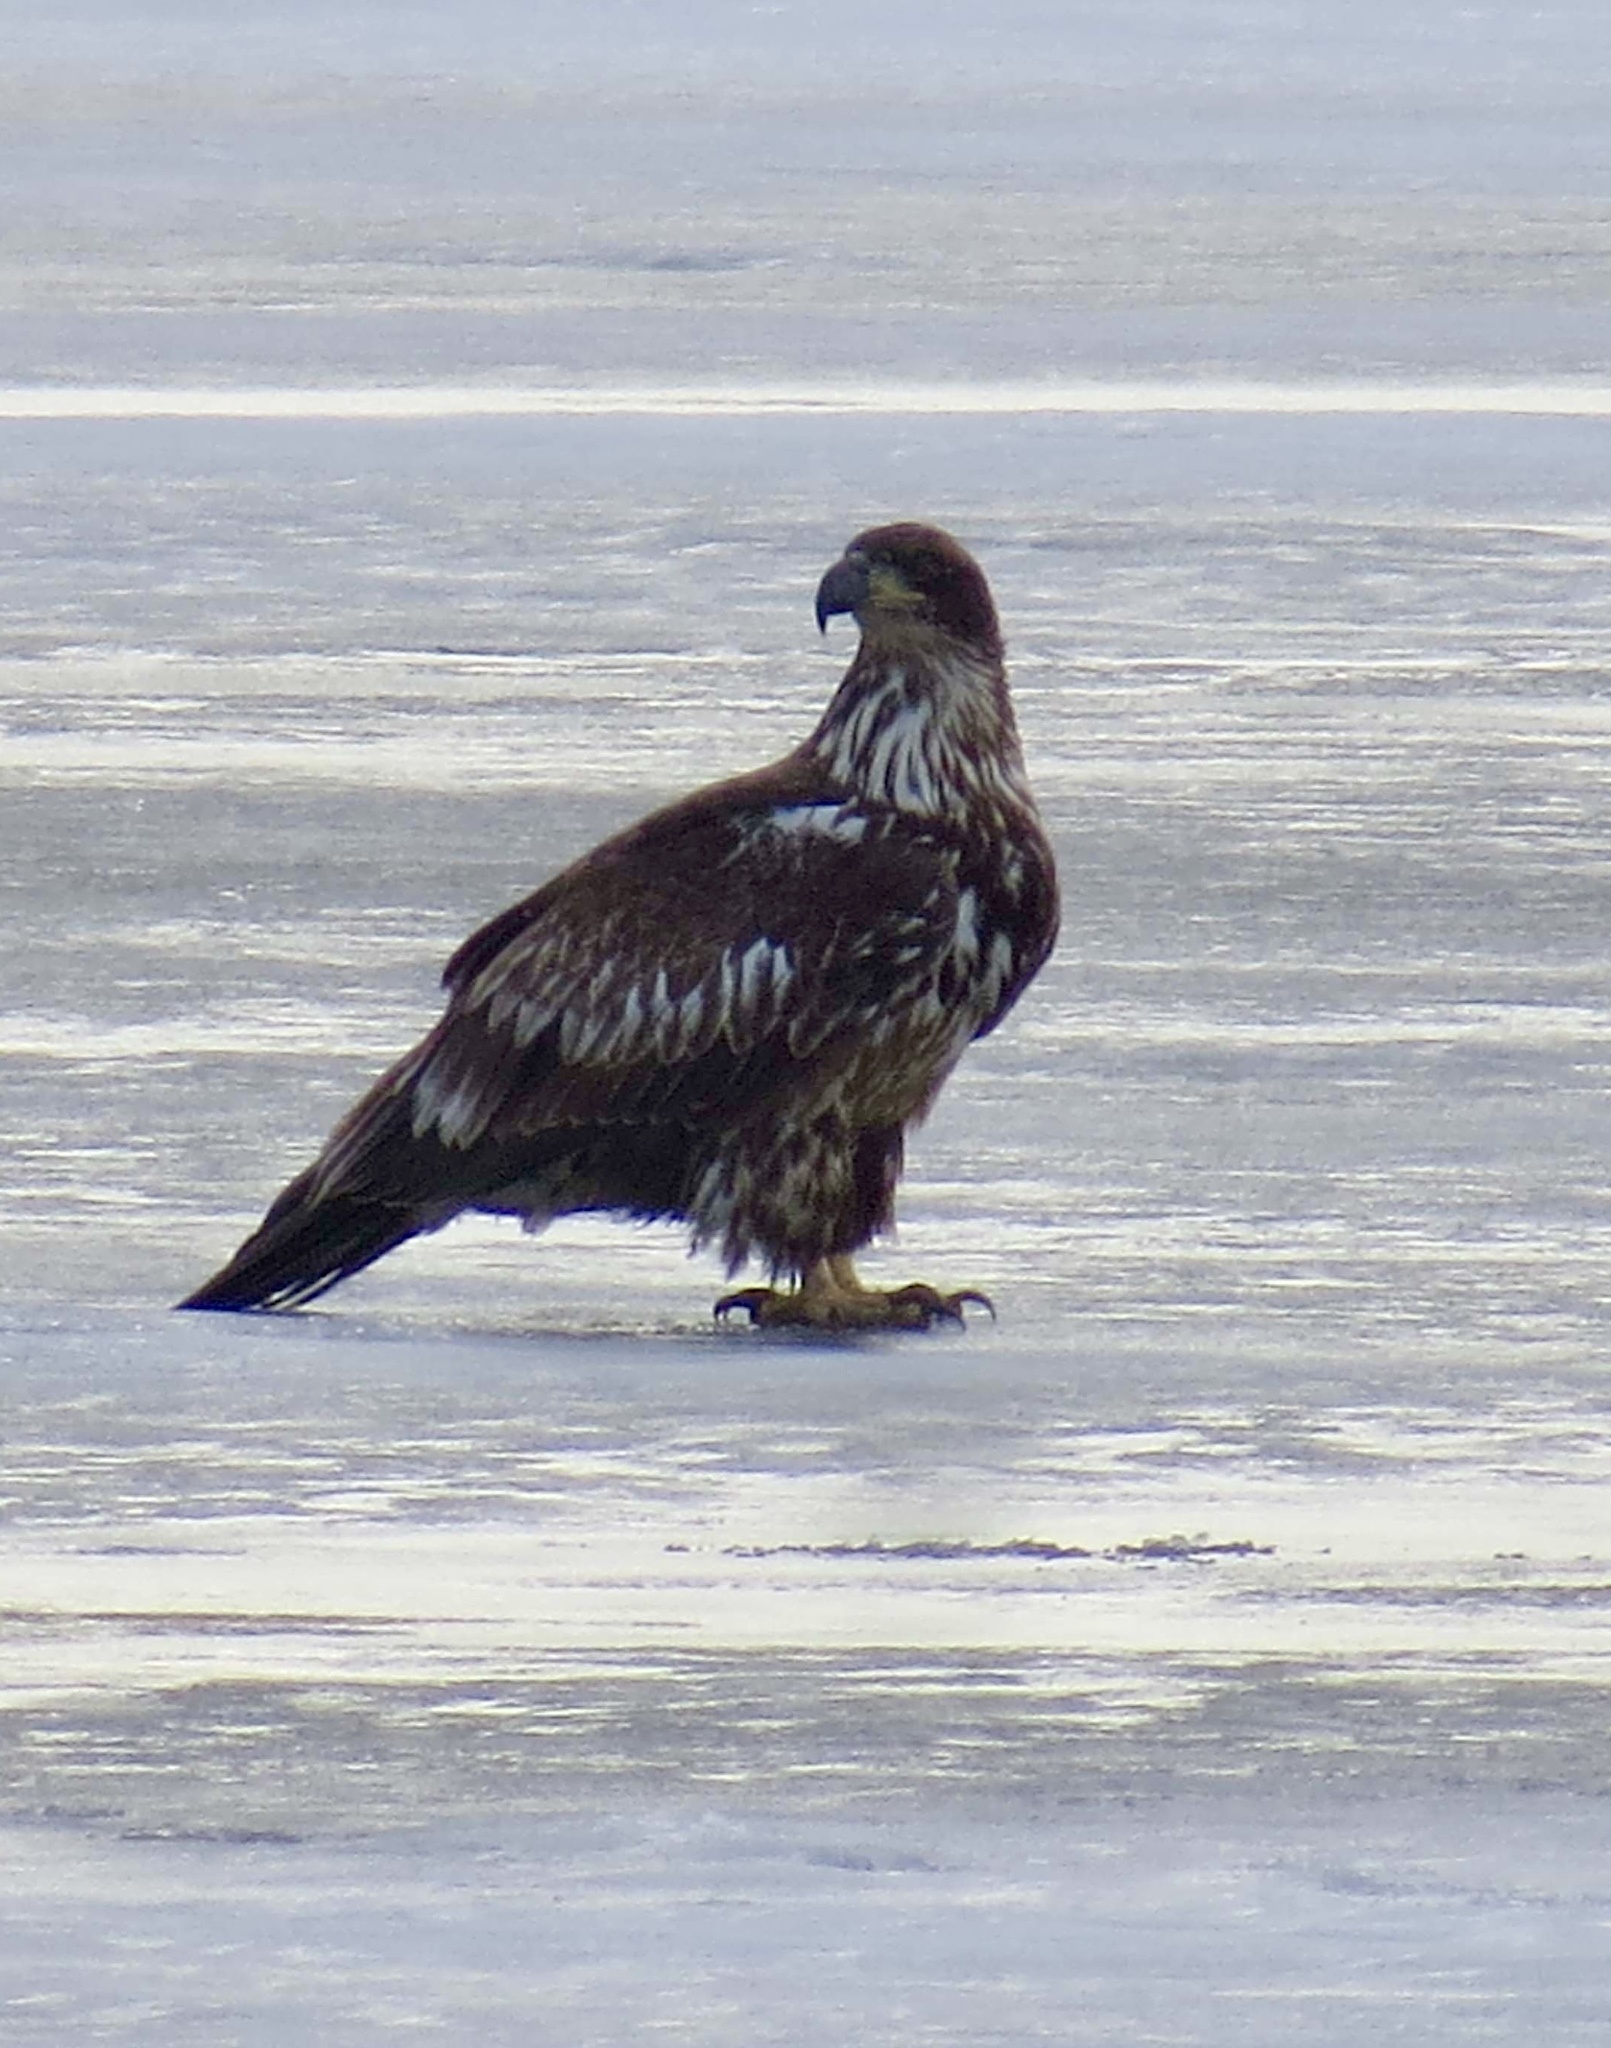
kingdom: Animalia
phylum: Chordata
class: Aves
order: Accipitriformes
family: Accipitridae
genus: Haliaeetus
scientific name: Haliaeetus leucocephalus
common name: Bald eagle
